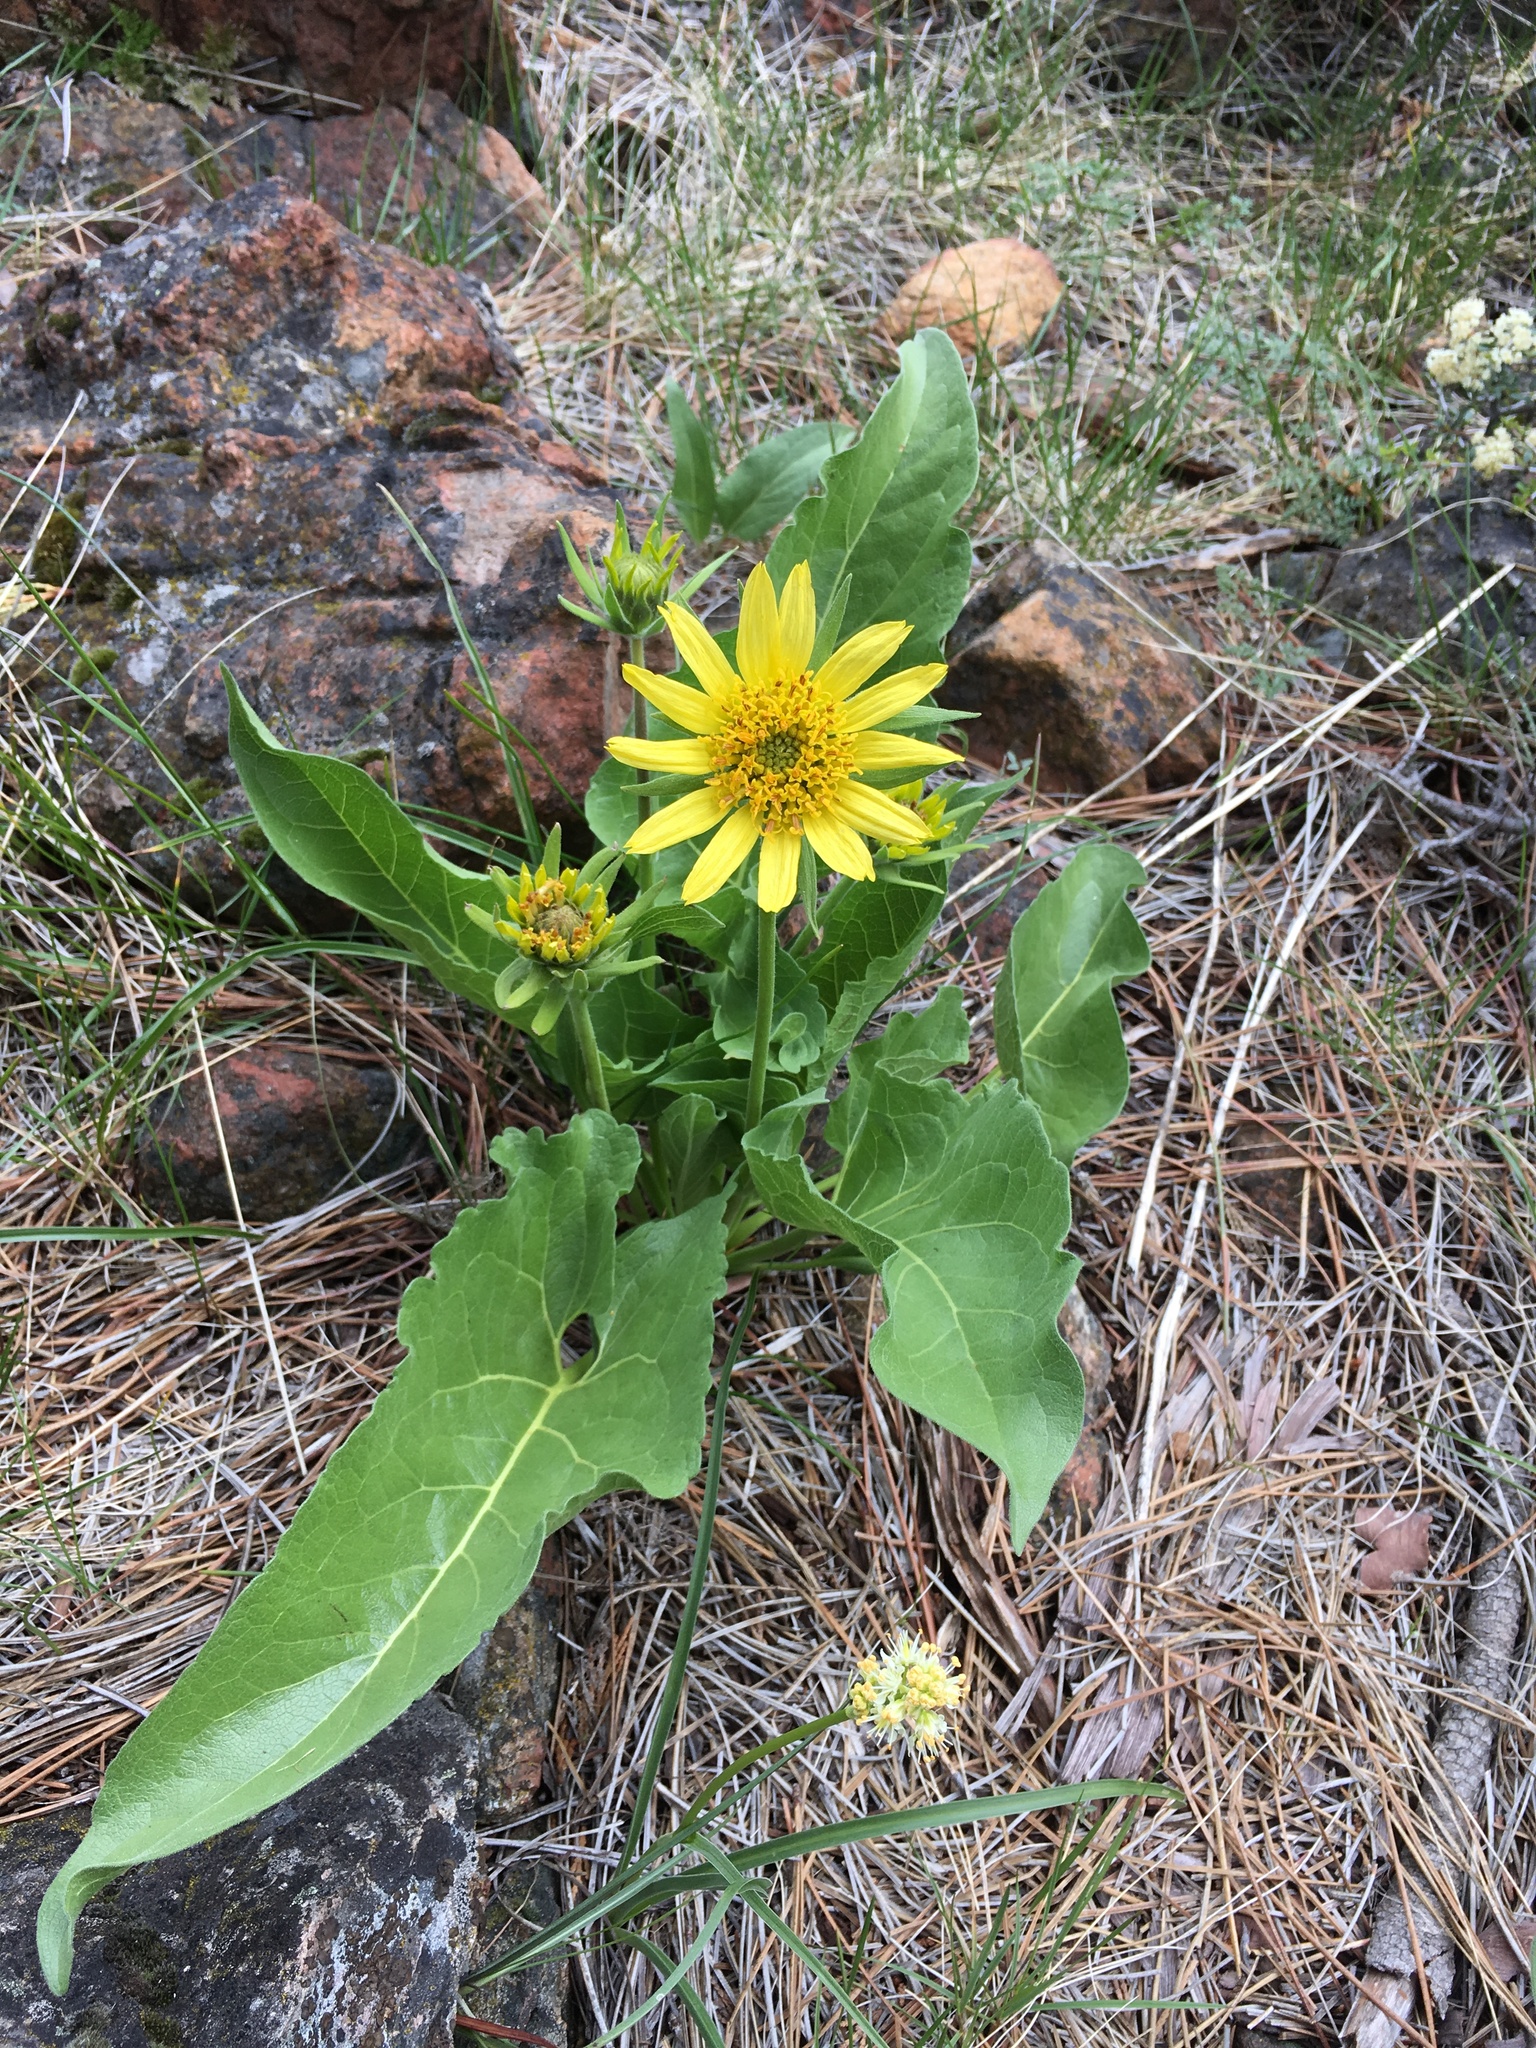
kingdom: Plantae
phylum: Tracheophyta
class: Magnoliopsida
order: Asterales
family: Asteraceae
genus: Balsamorhiza
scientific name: Balsamorhiza deltoidea
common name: Deltoid balsamroot
